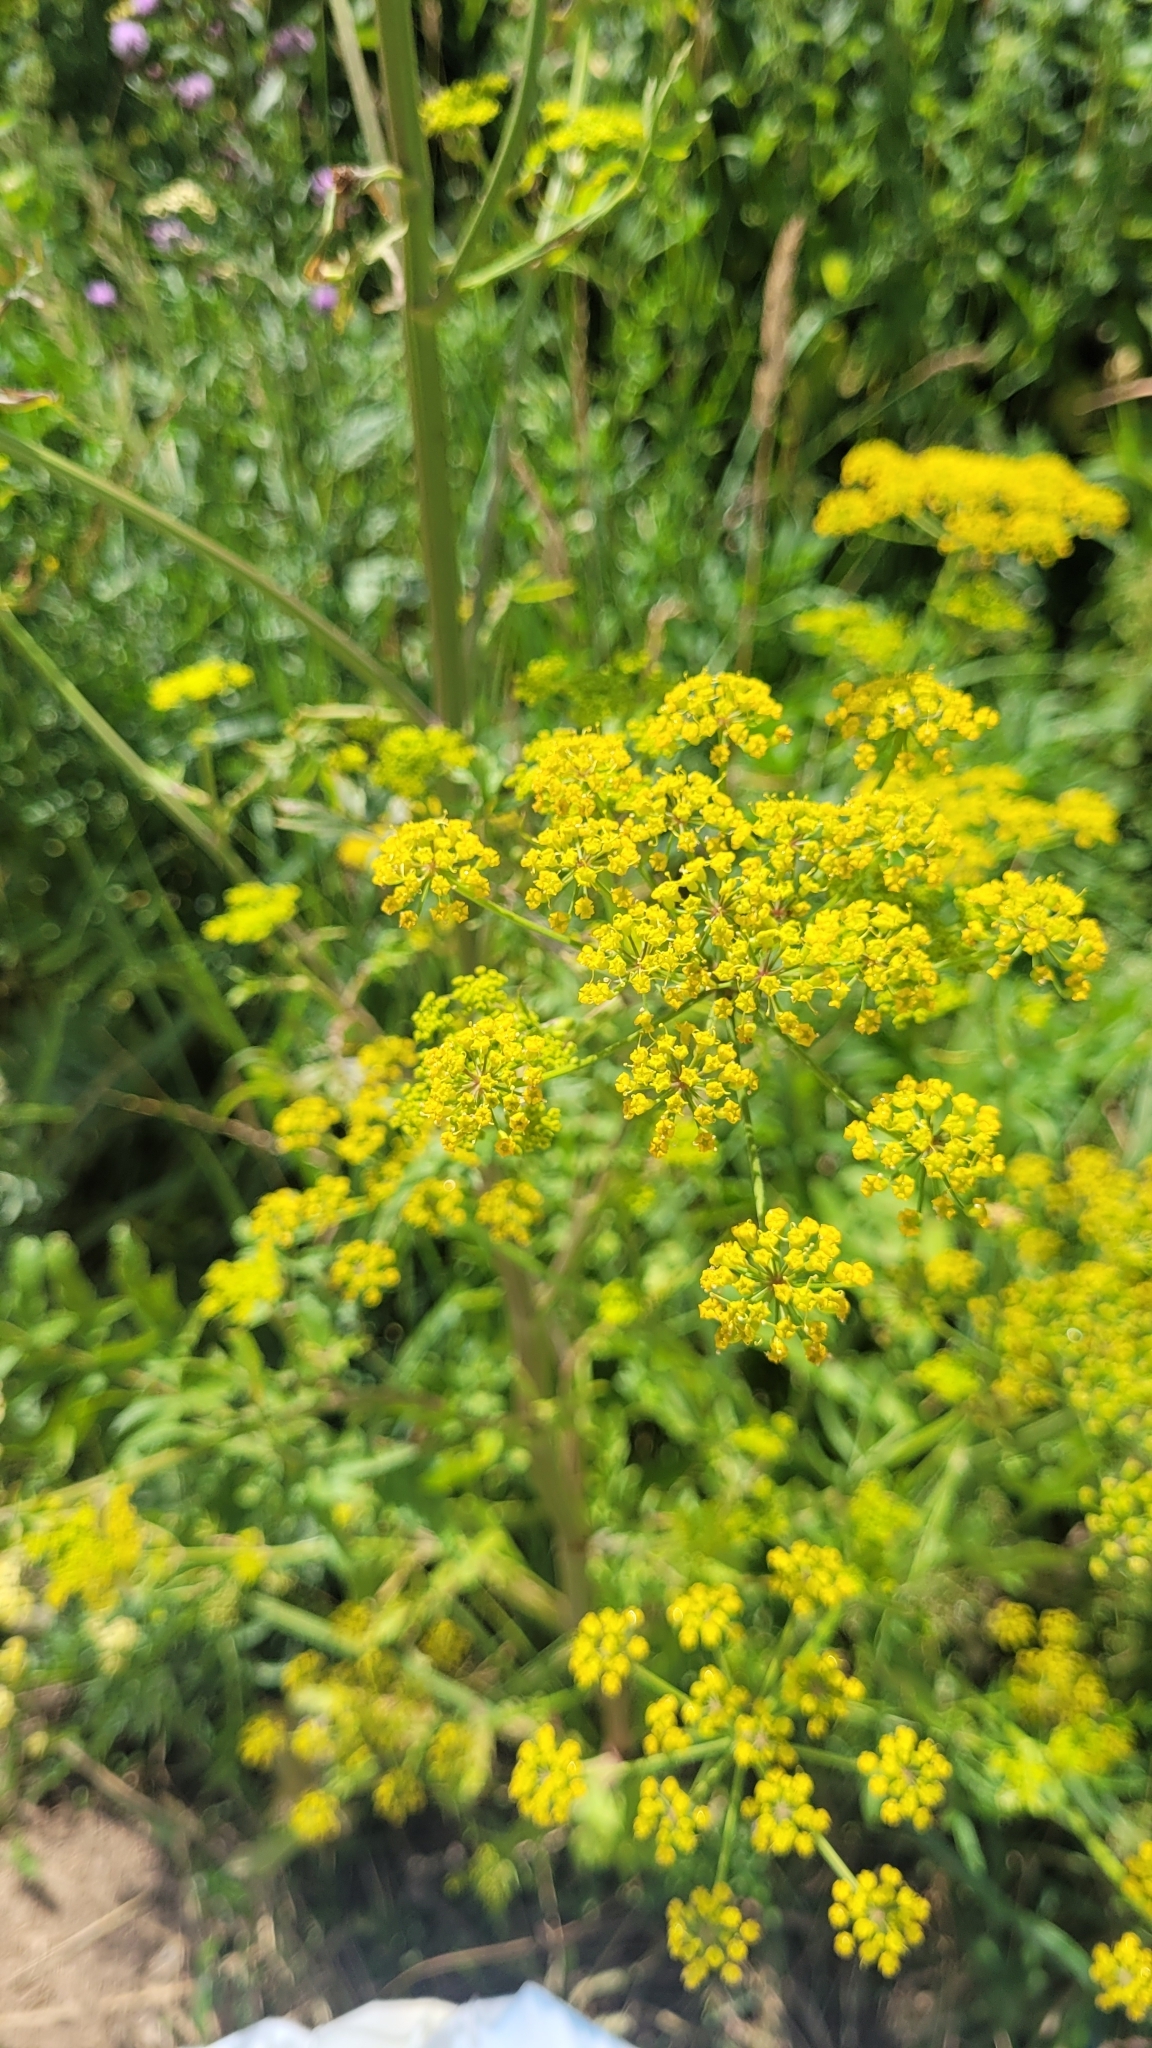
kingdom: Plantae
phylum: Tracheophyta
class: Magnoliopsida
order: Apiales
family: Apiaceae
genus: Pastinaca
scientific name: Pastinaca sativa
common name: Wild parsnip
